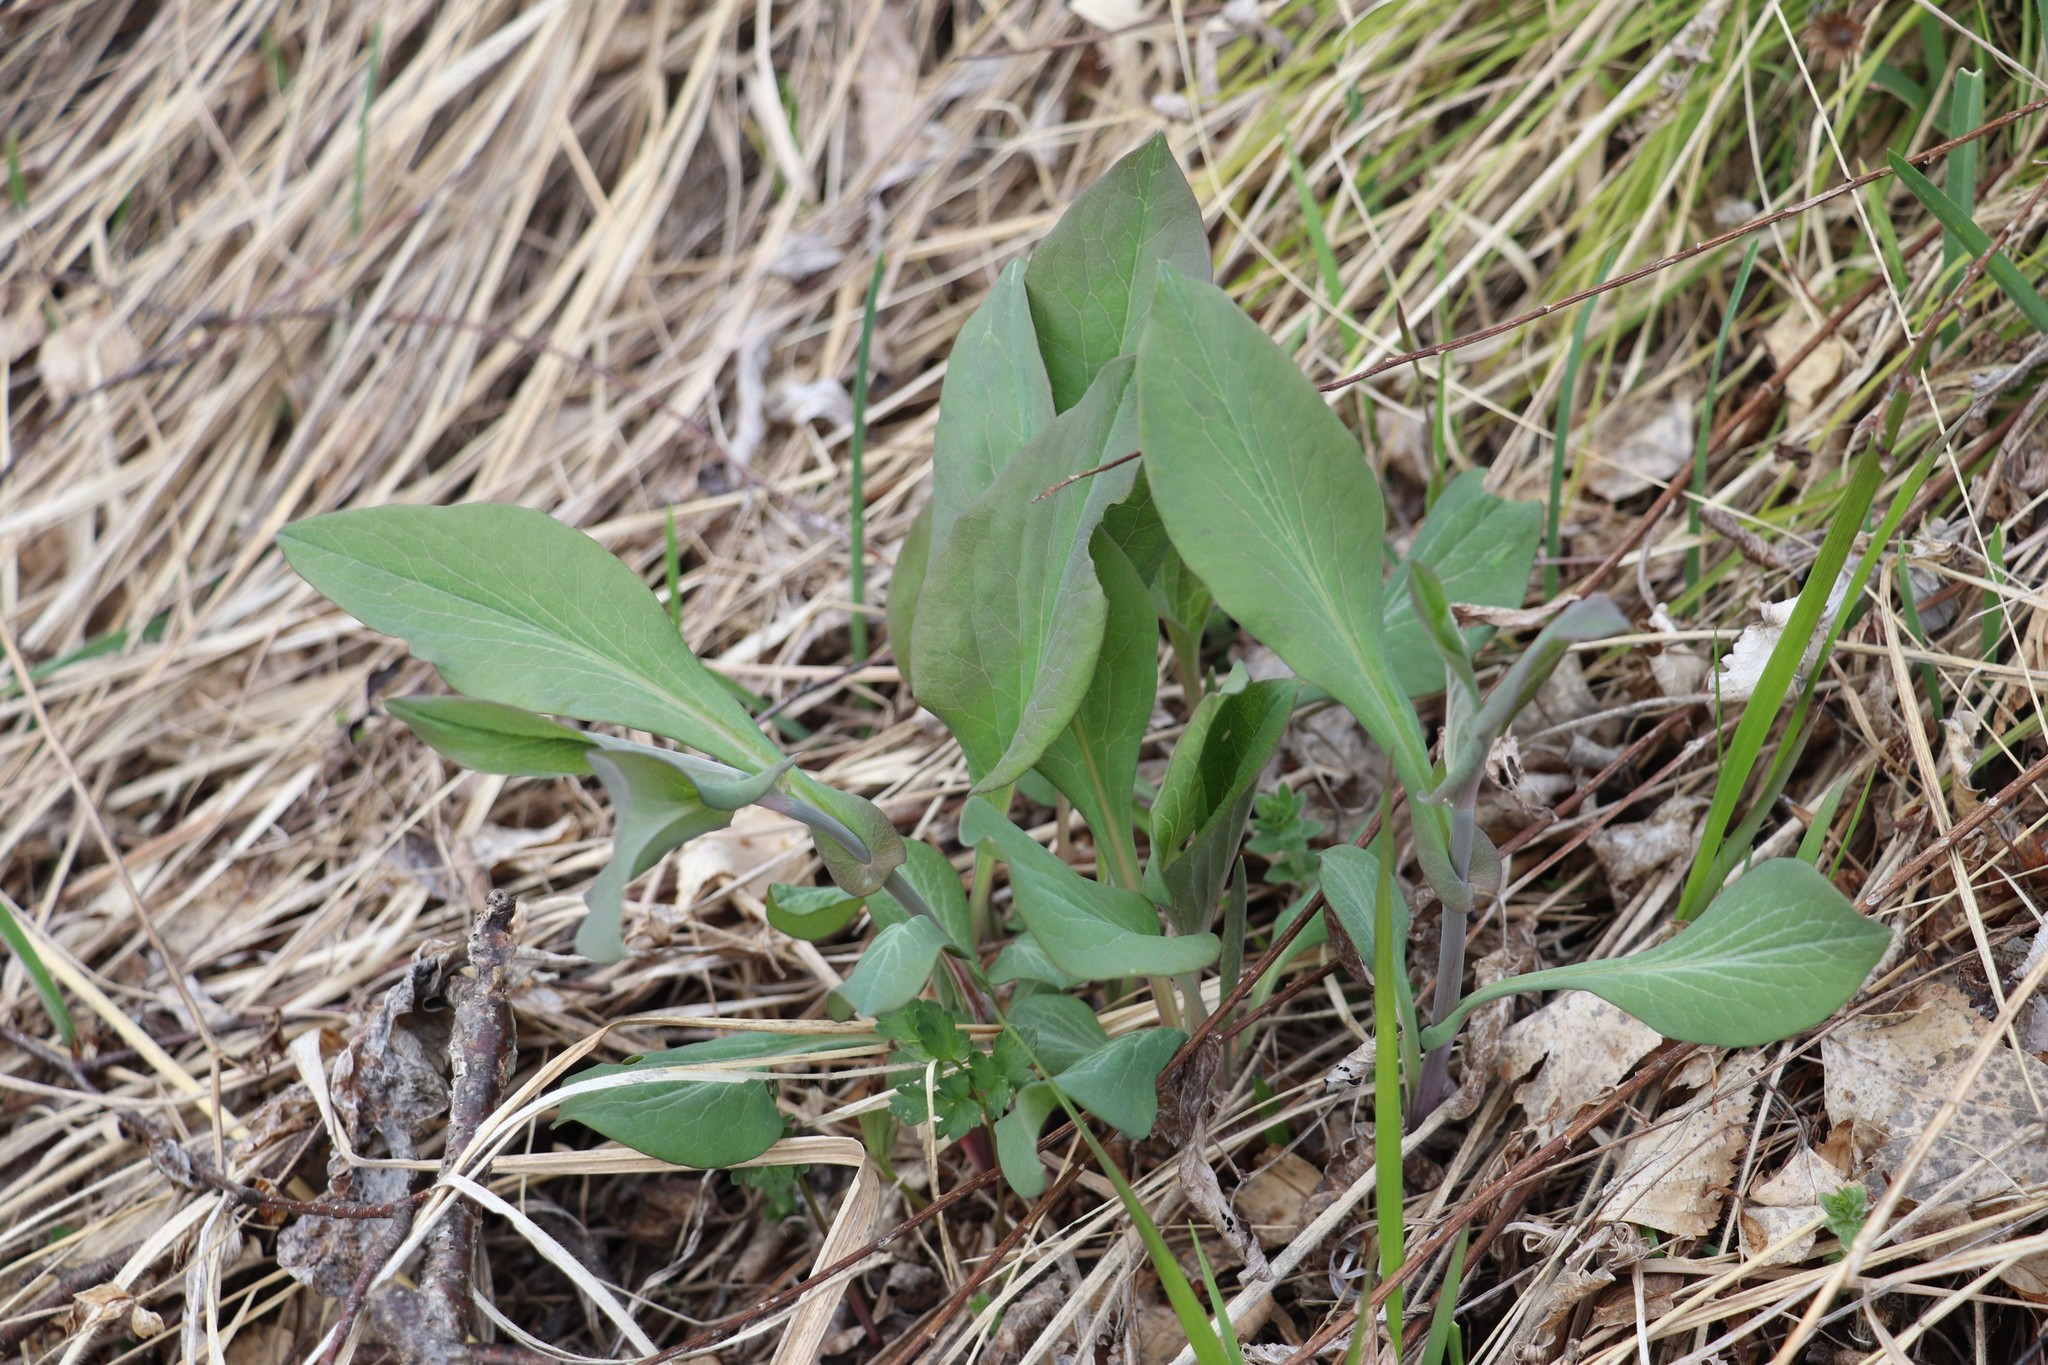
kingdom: Plantae
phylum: Tracheophyta
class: Magnoliopsida
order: Apiales
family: Apiaceae
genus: Bupleurum
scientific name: Bupleurum aureum
